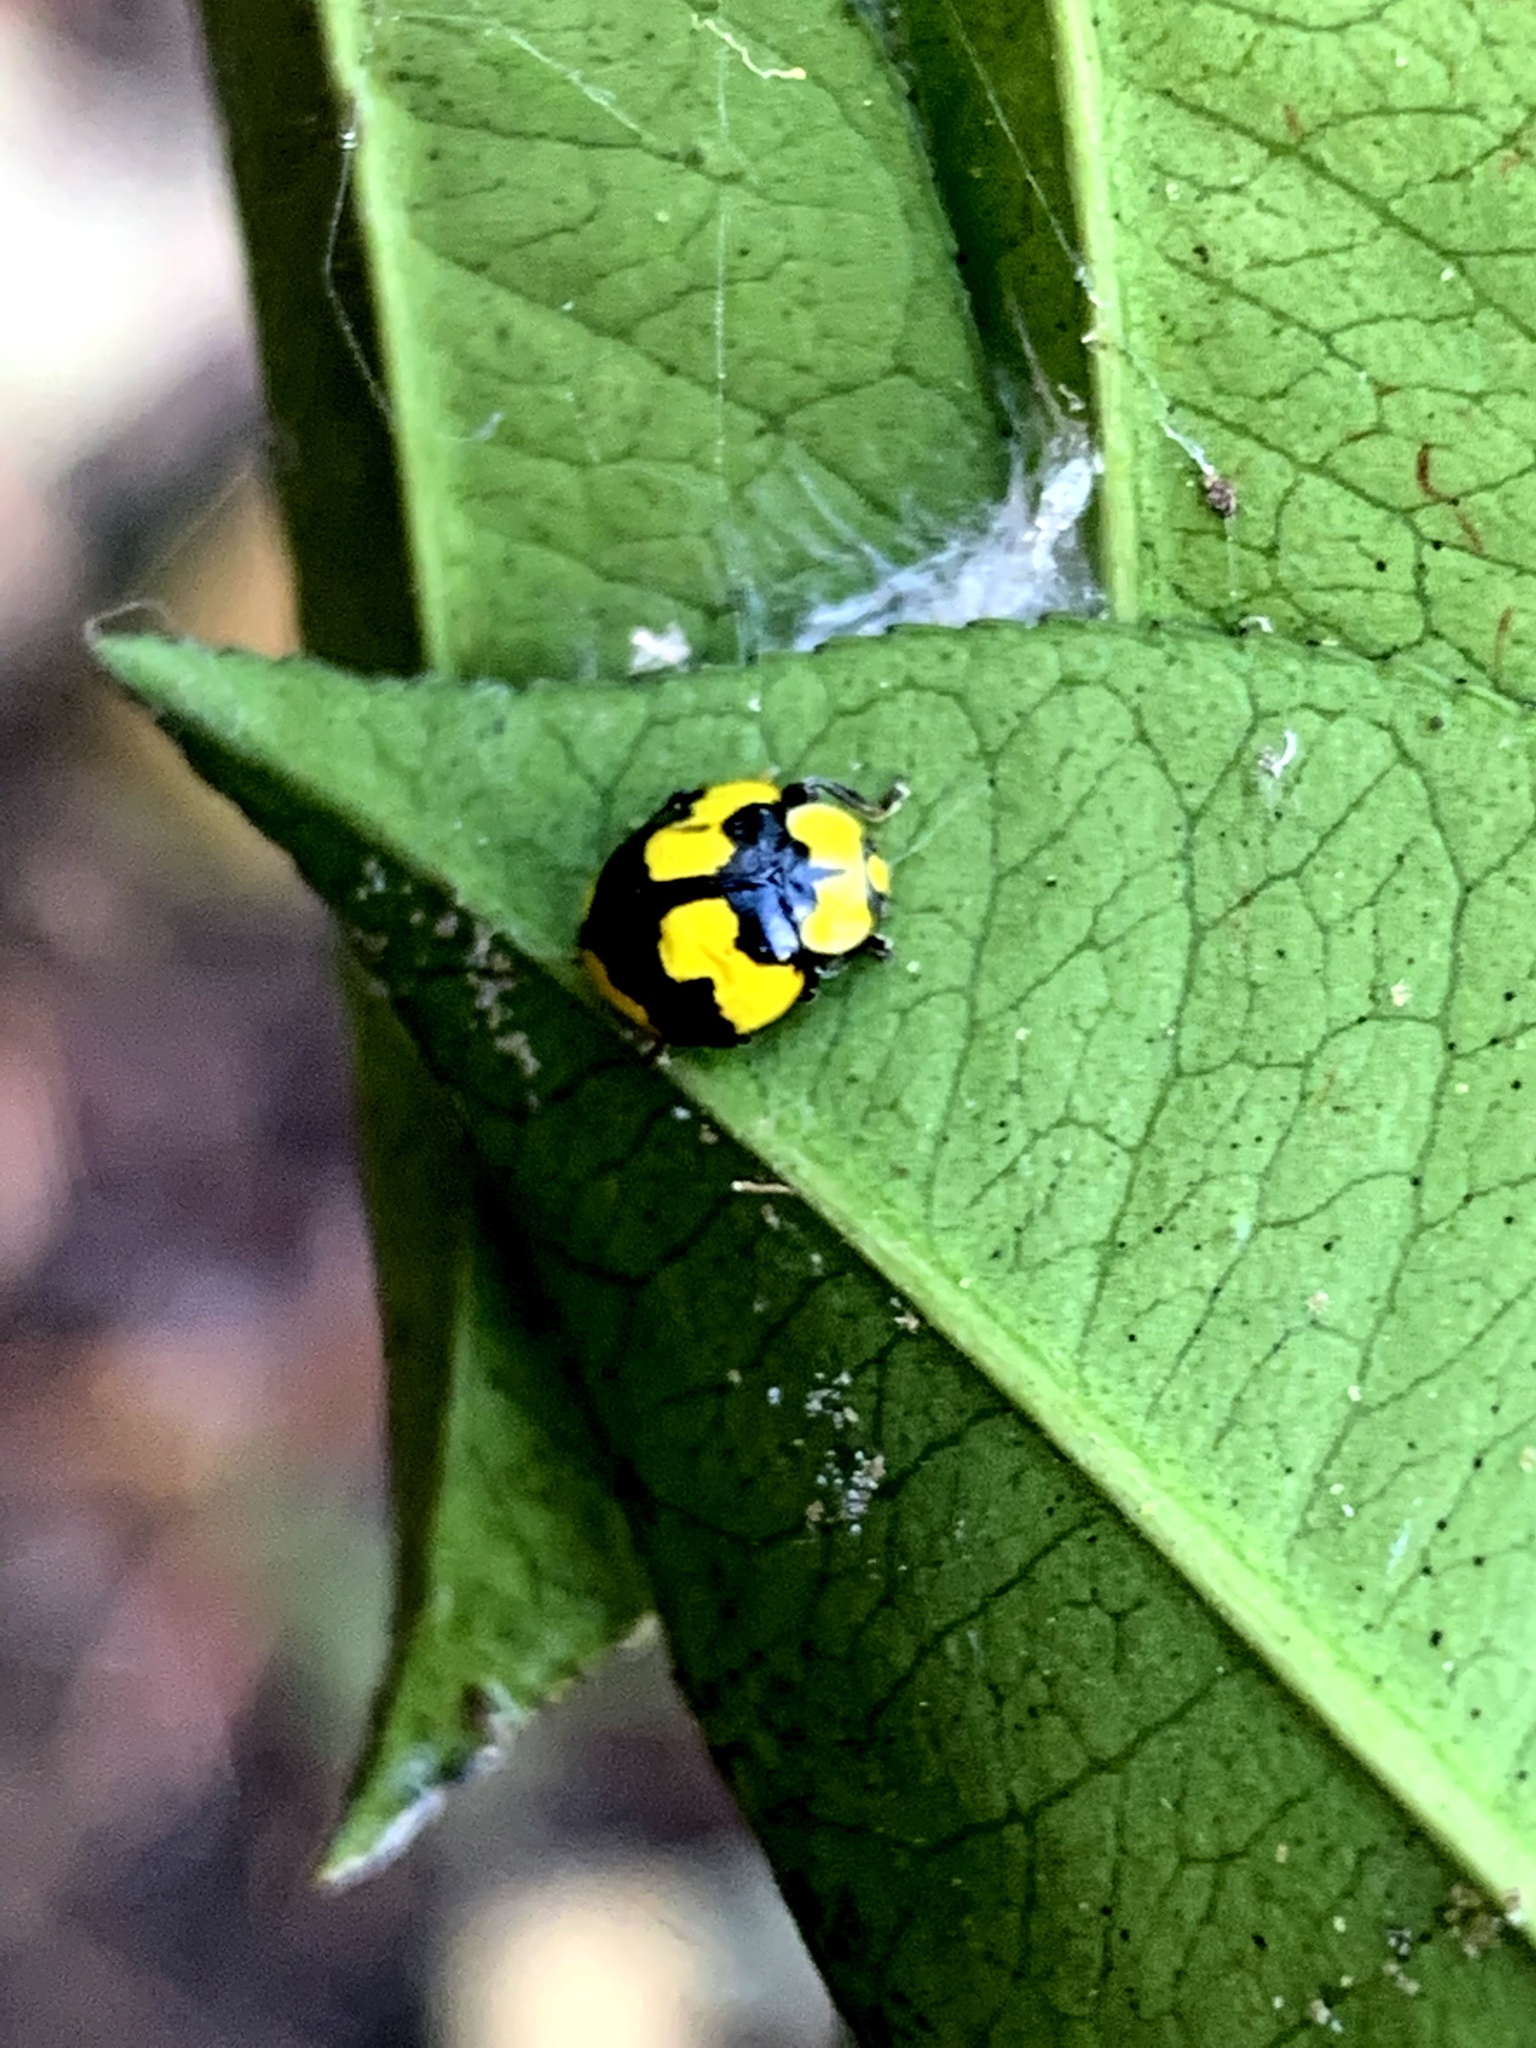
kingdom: Animalia
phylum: Arthropoda
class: Insecta
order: Coleoptera
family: Coccinellidae
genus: Illeis
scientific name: Illeis galbula
